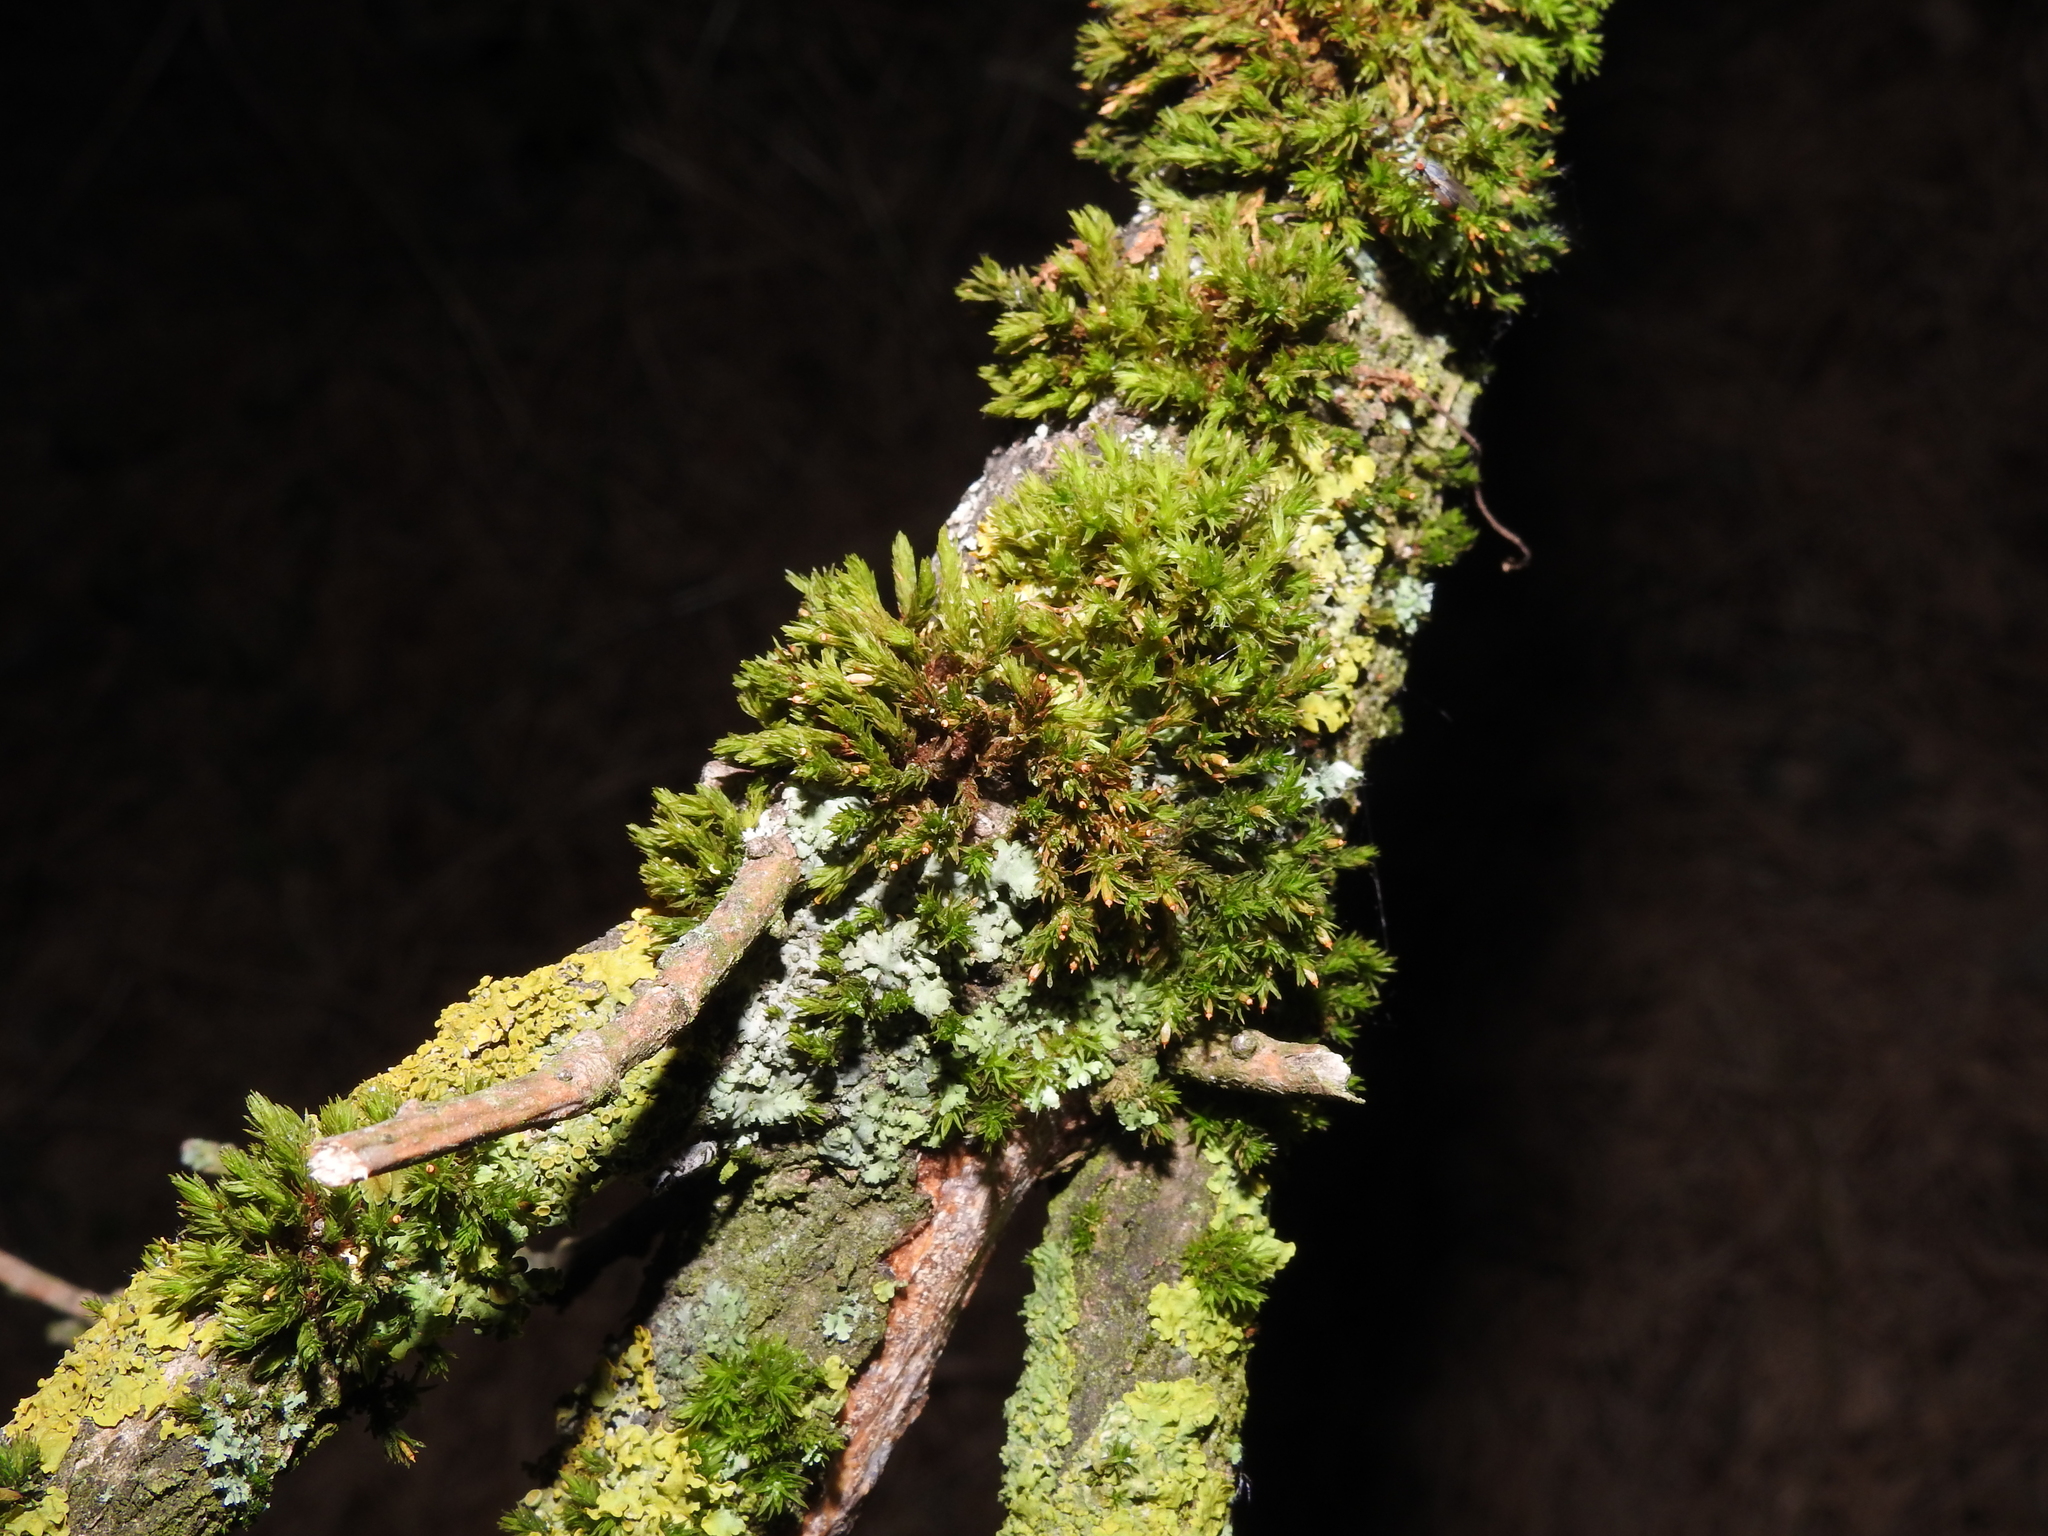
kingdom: Plantae
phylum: Bryophyta
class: Bryopsida
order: Orthotrichales
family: Orthotrichaceae
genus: Lewinskya
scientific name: Lewinskya affinis
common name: Wood bristle-moss
